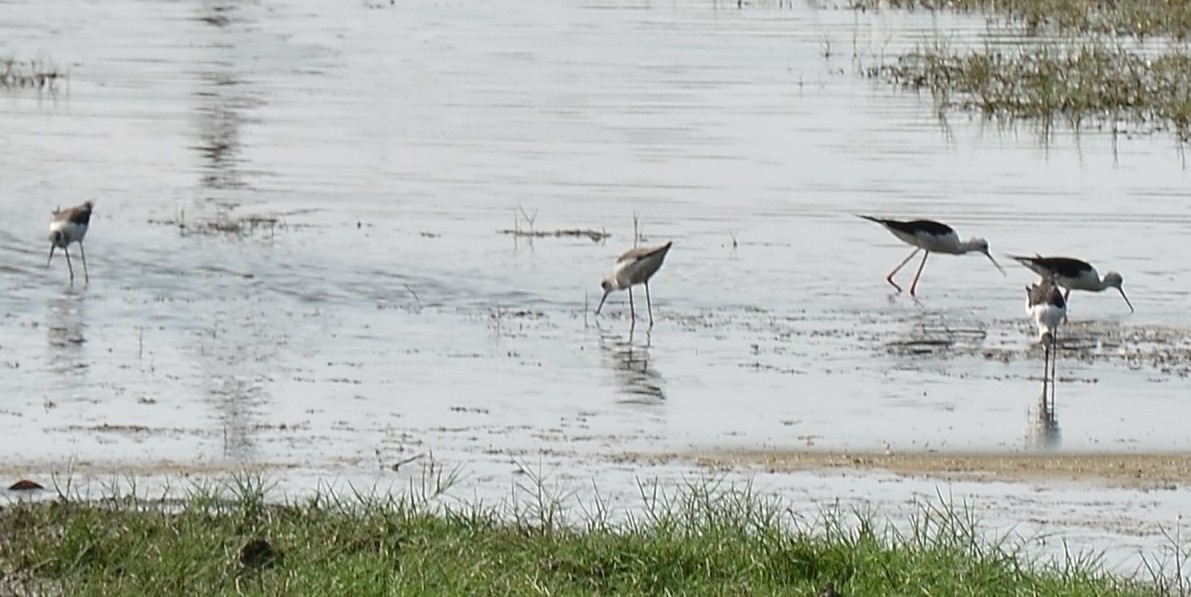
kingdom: Animalia
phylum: Chordata
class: Aves
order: Charadriiformes
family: Recurvirostridae
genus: Himantopus
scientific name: Himantopus himantopus
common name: Black-winged stilt
